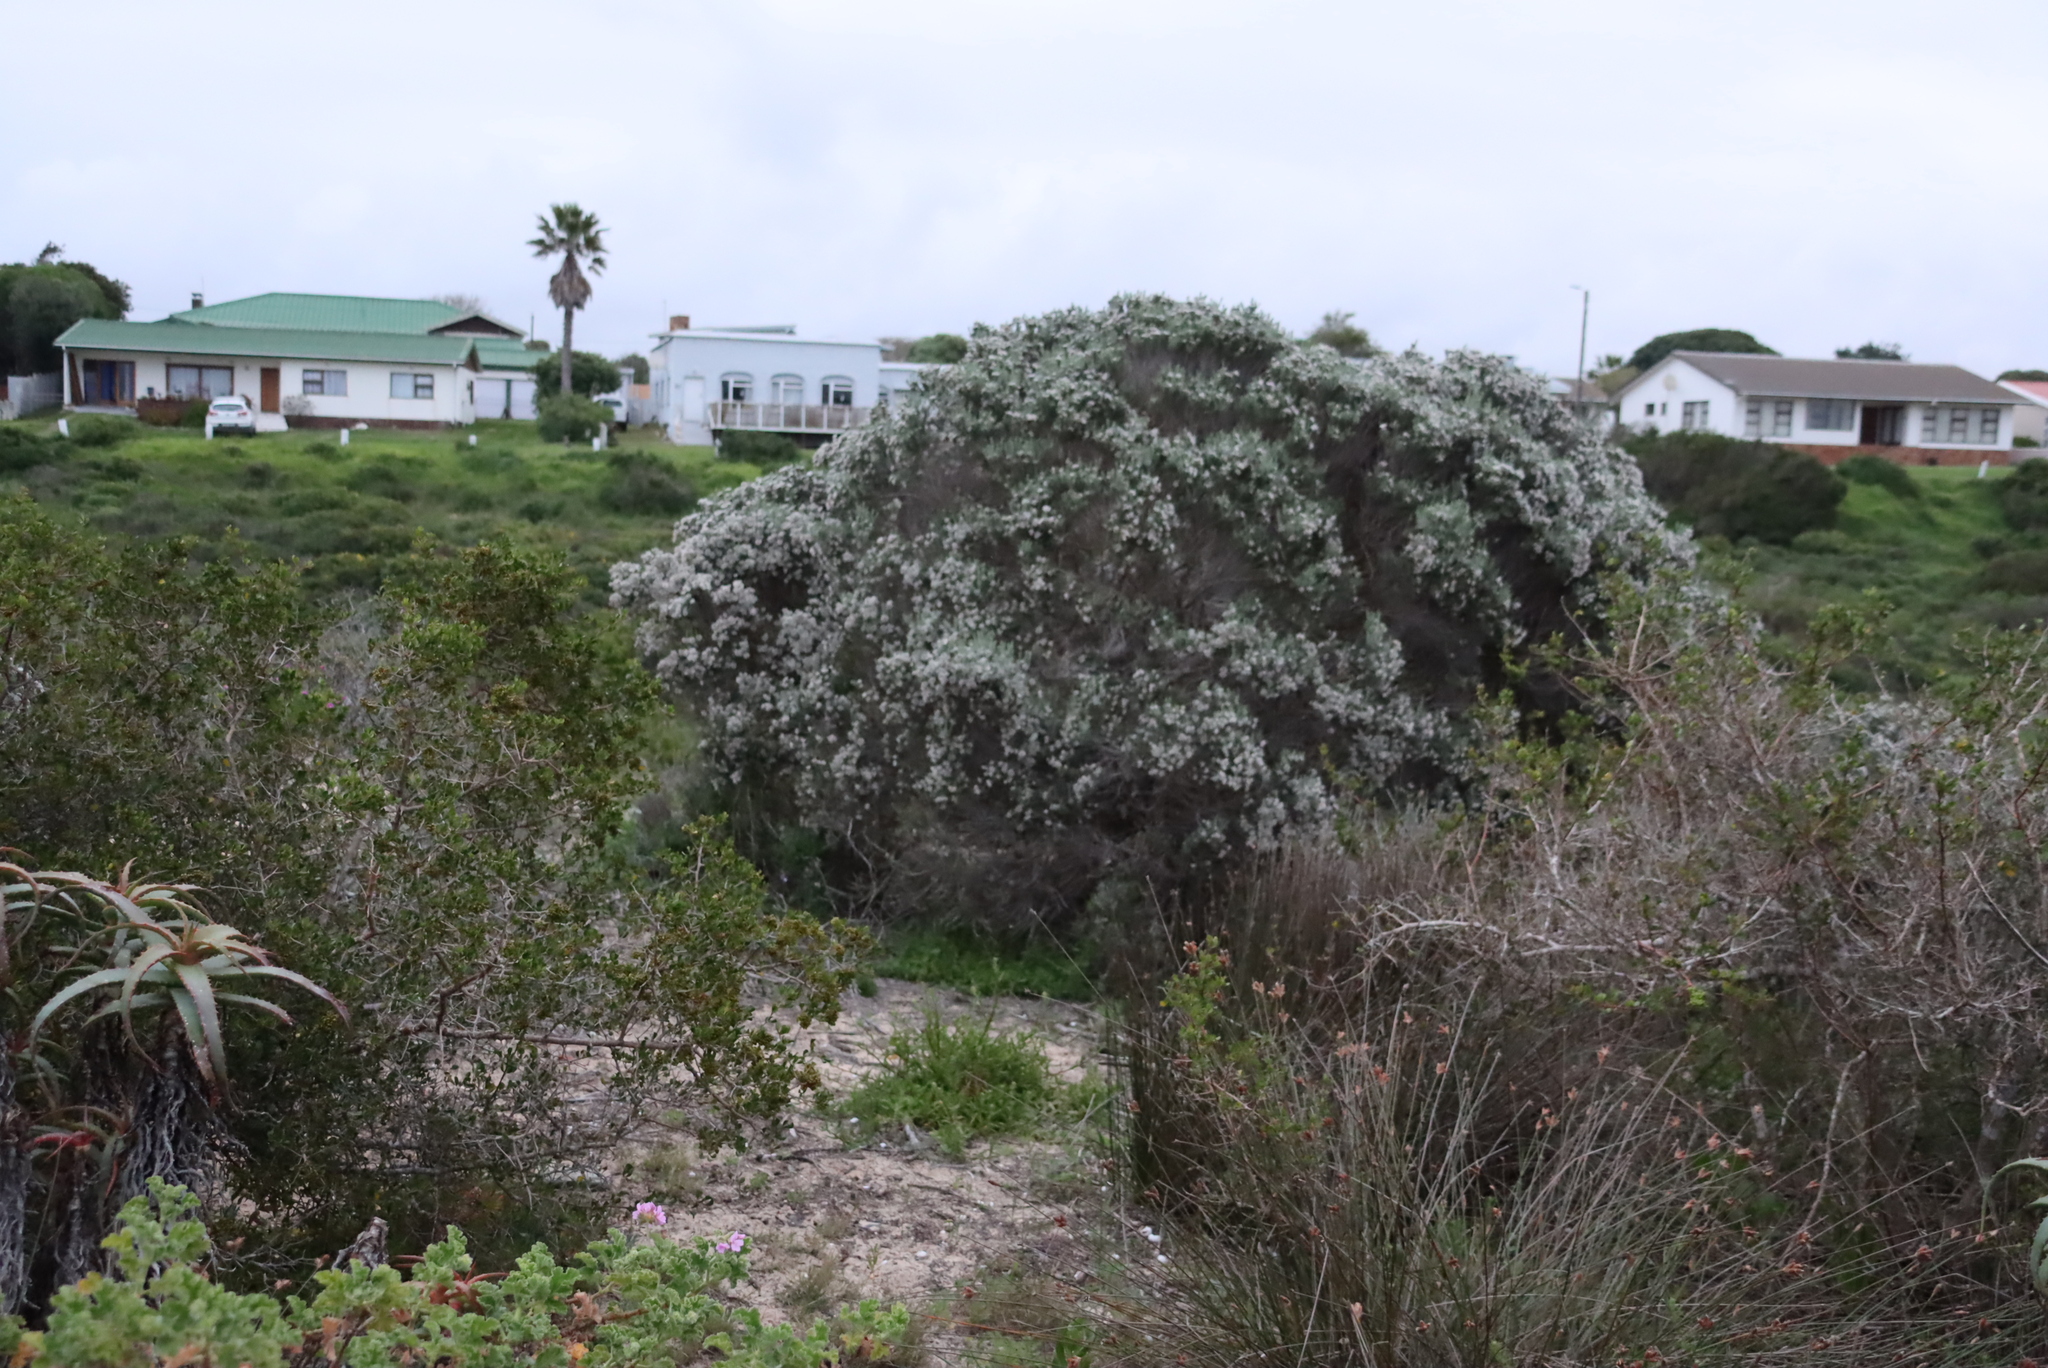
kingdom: Plantae
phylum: Tracheophyta
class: Magnoliopsida
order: Asterales
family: Asteraceae
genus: Metalasia
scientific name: Metalasia muricata
